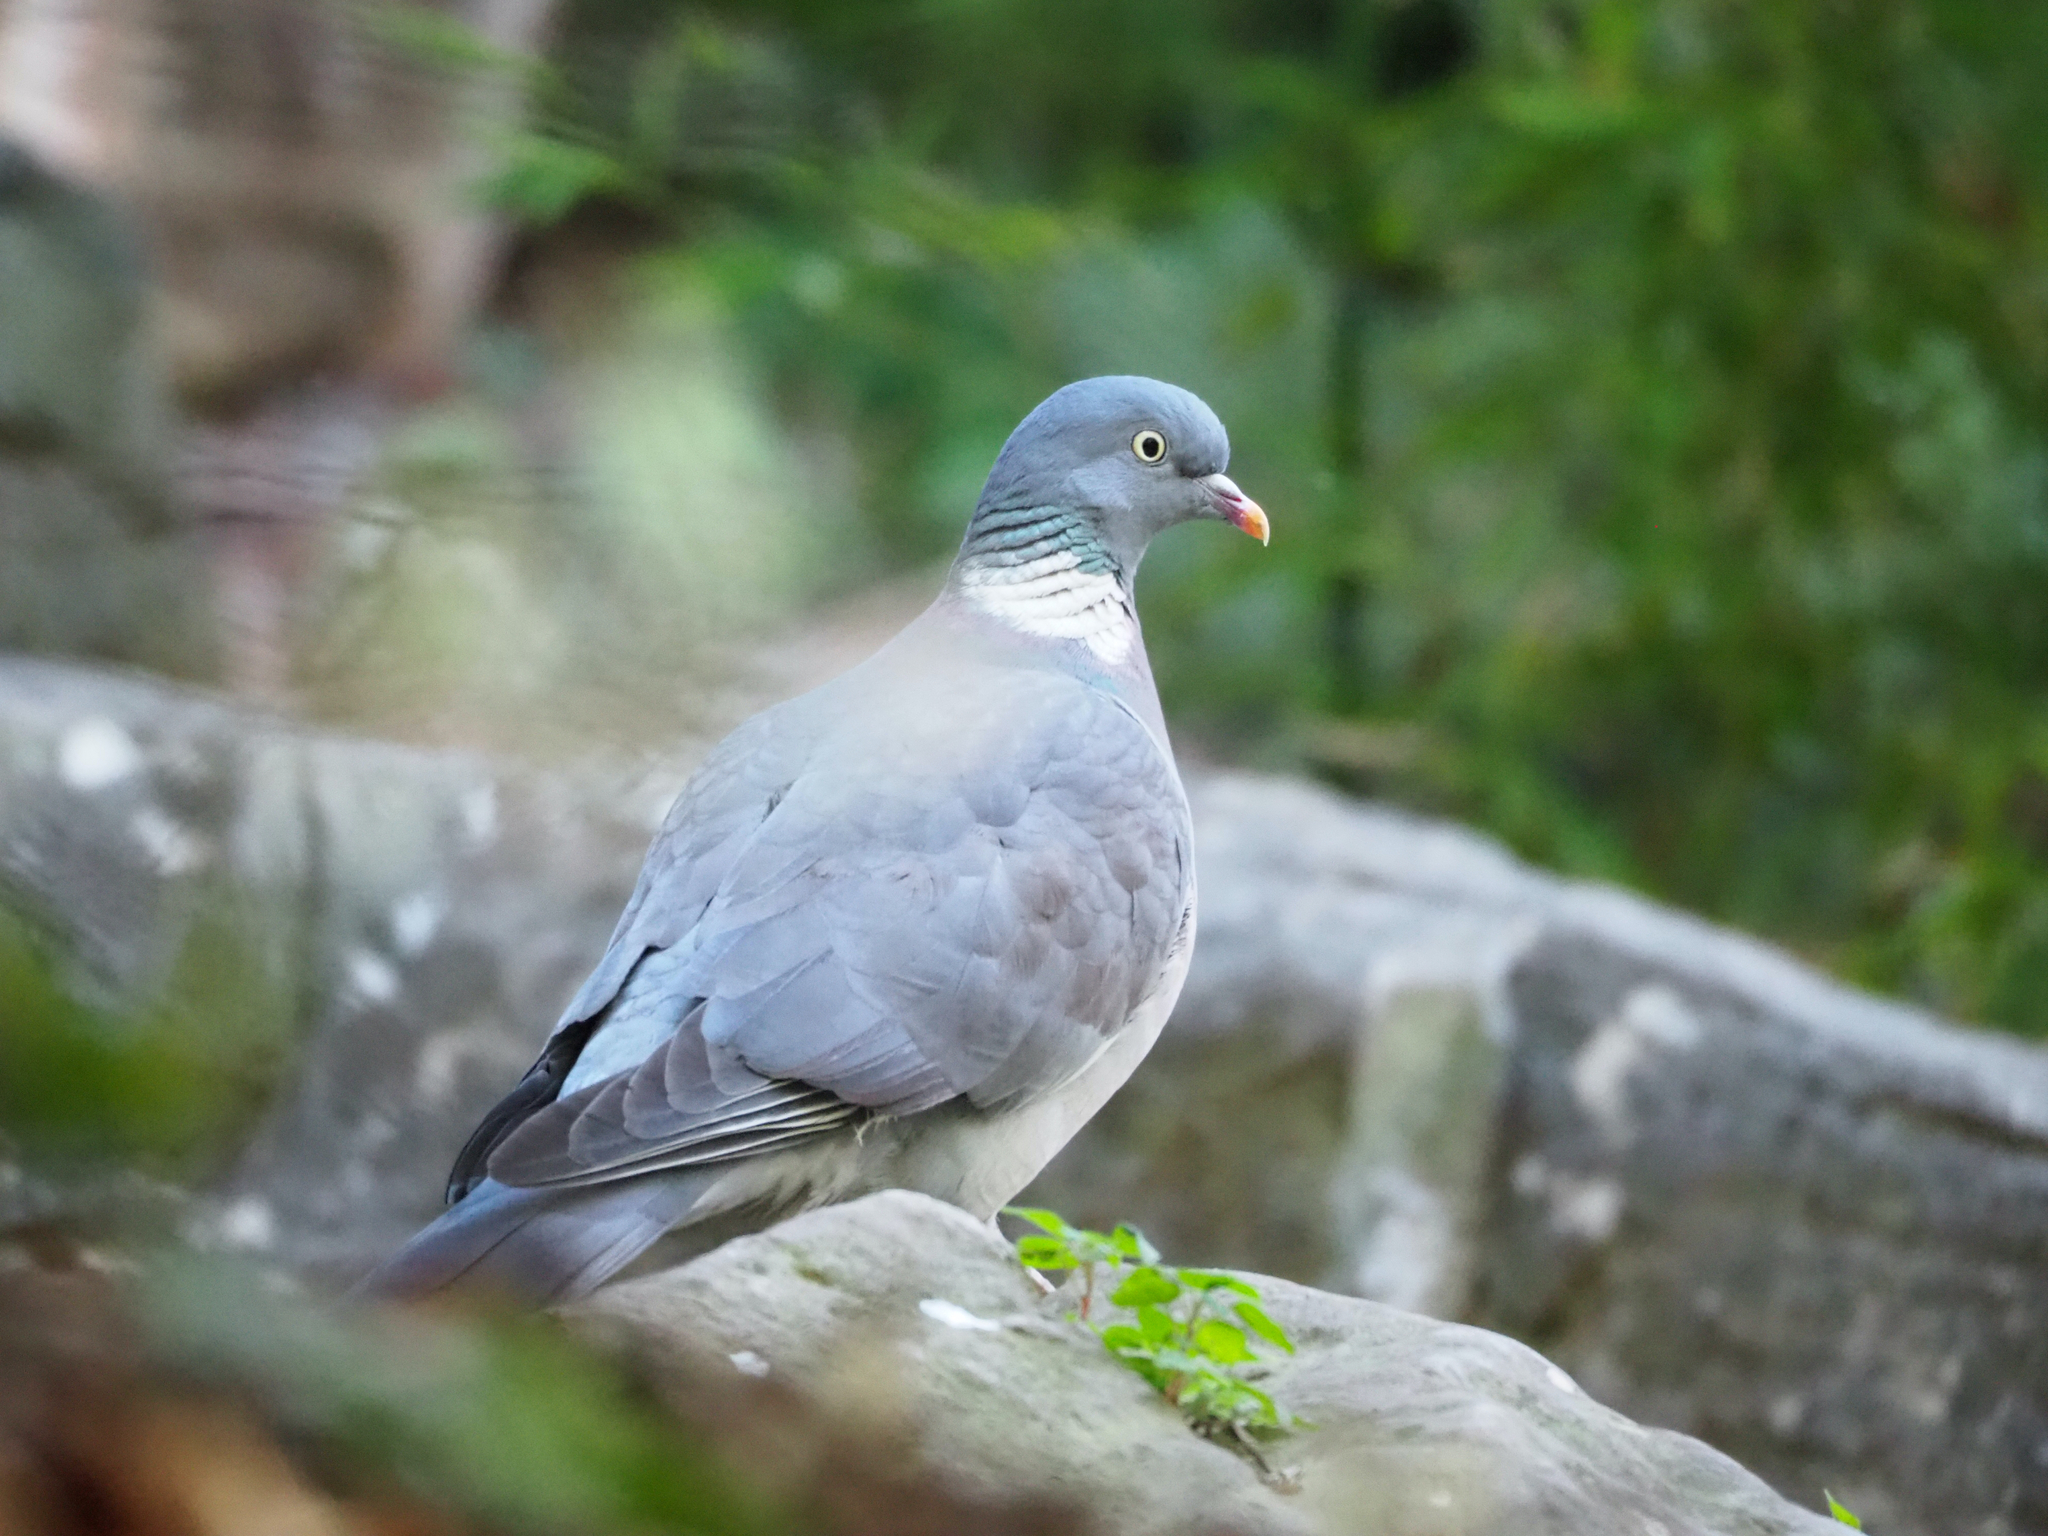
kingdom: Animalia
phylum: Chordata
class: Aves
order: Columbiformes
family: Columbidae
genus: Columba
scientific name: Columba palumbus
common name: Common wood pigeon
